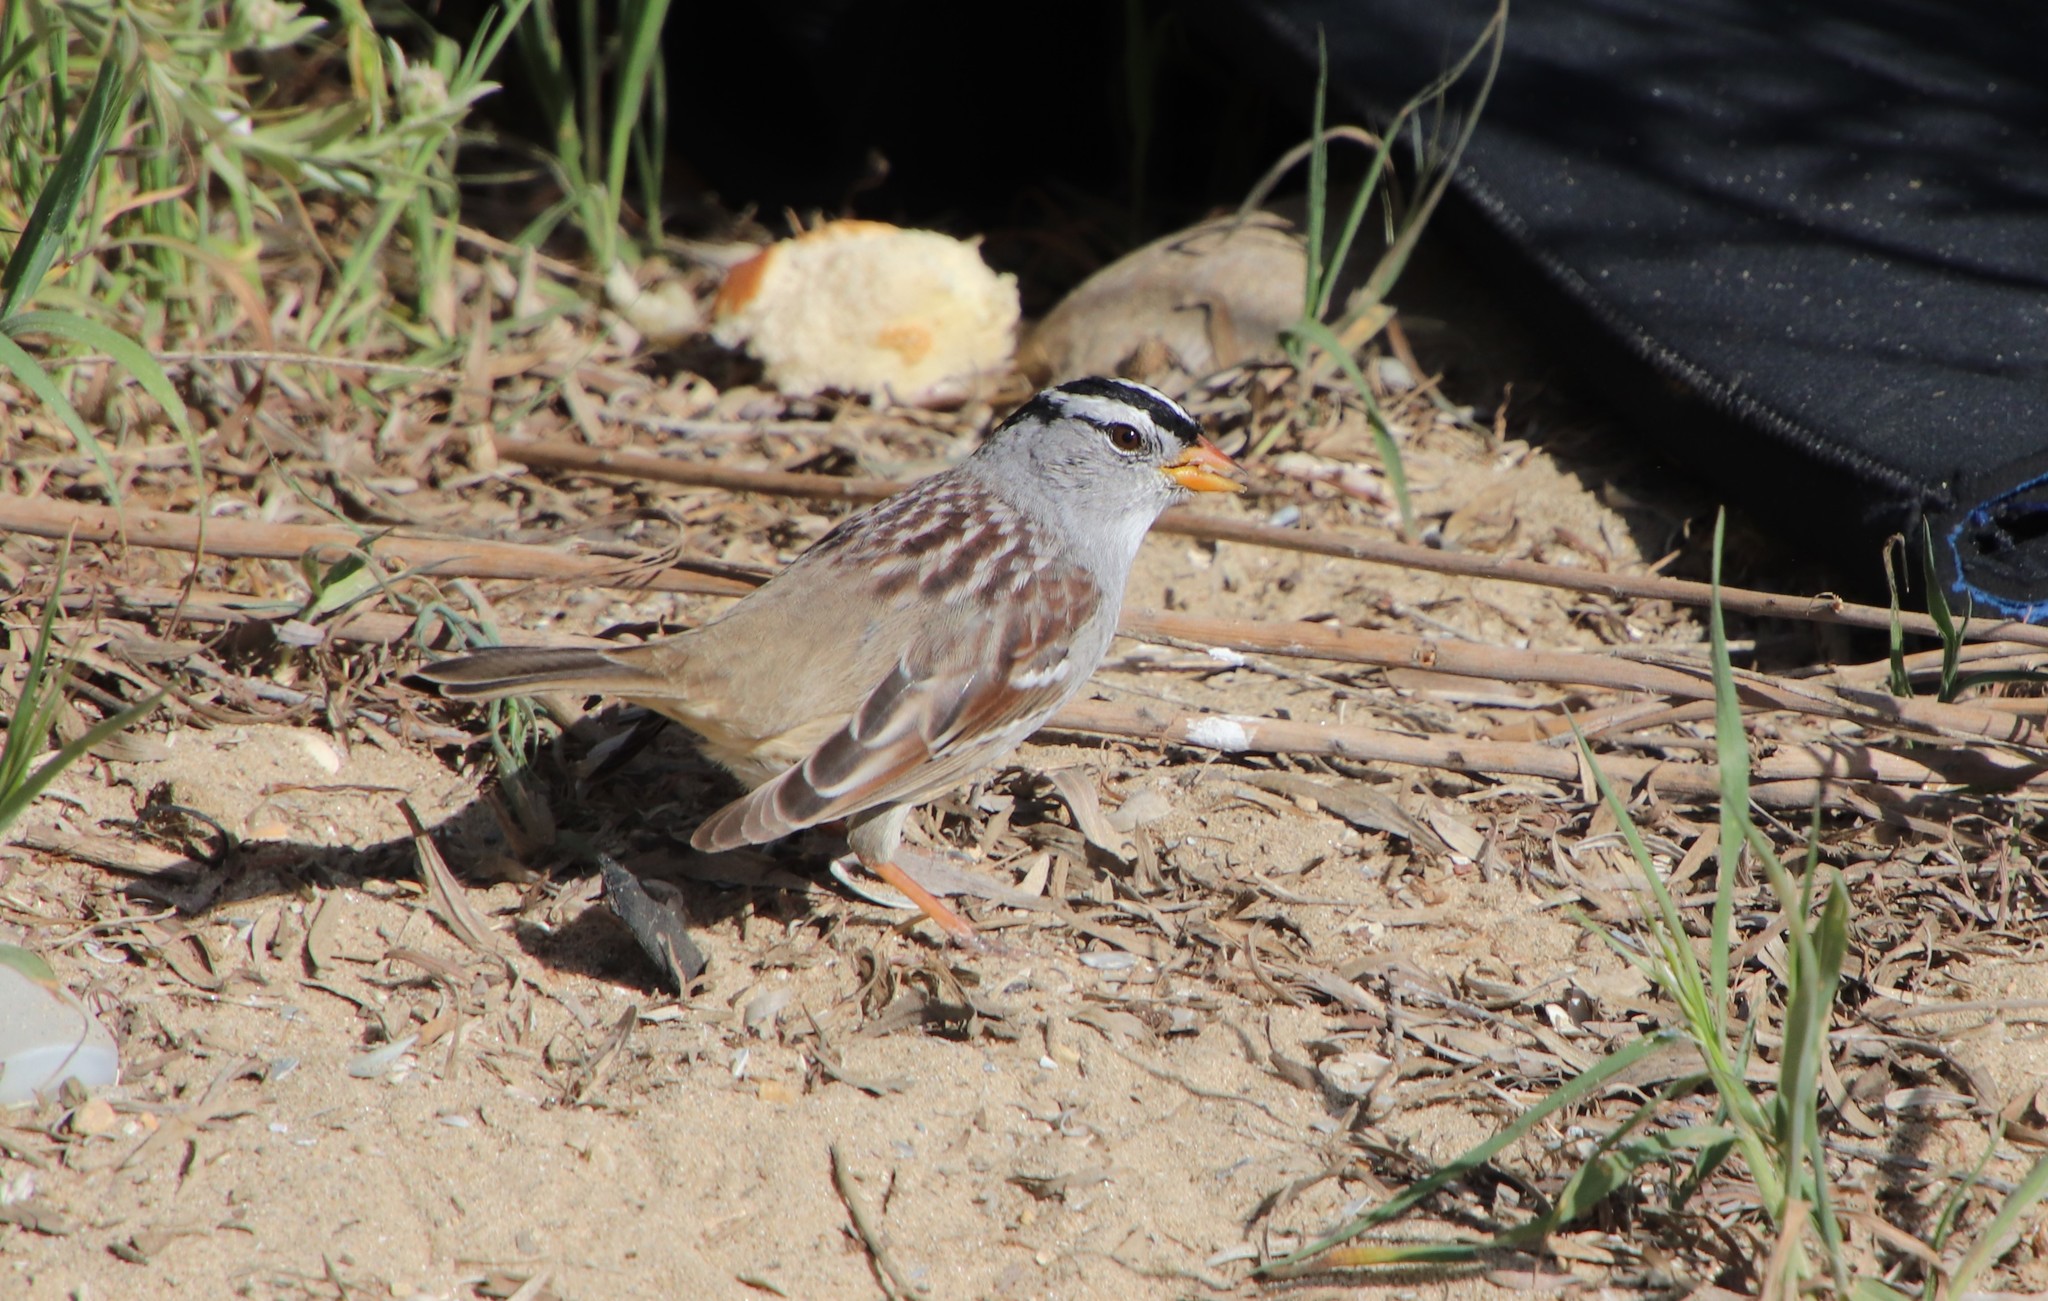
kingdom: Animalia
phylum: Chordata
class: Aves
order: Passeriformes
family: Passerellidae
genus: Zonotrichia
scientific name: Zonotrichia leucophrys
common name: White-crowned sparrow
